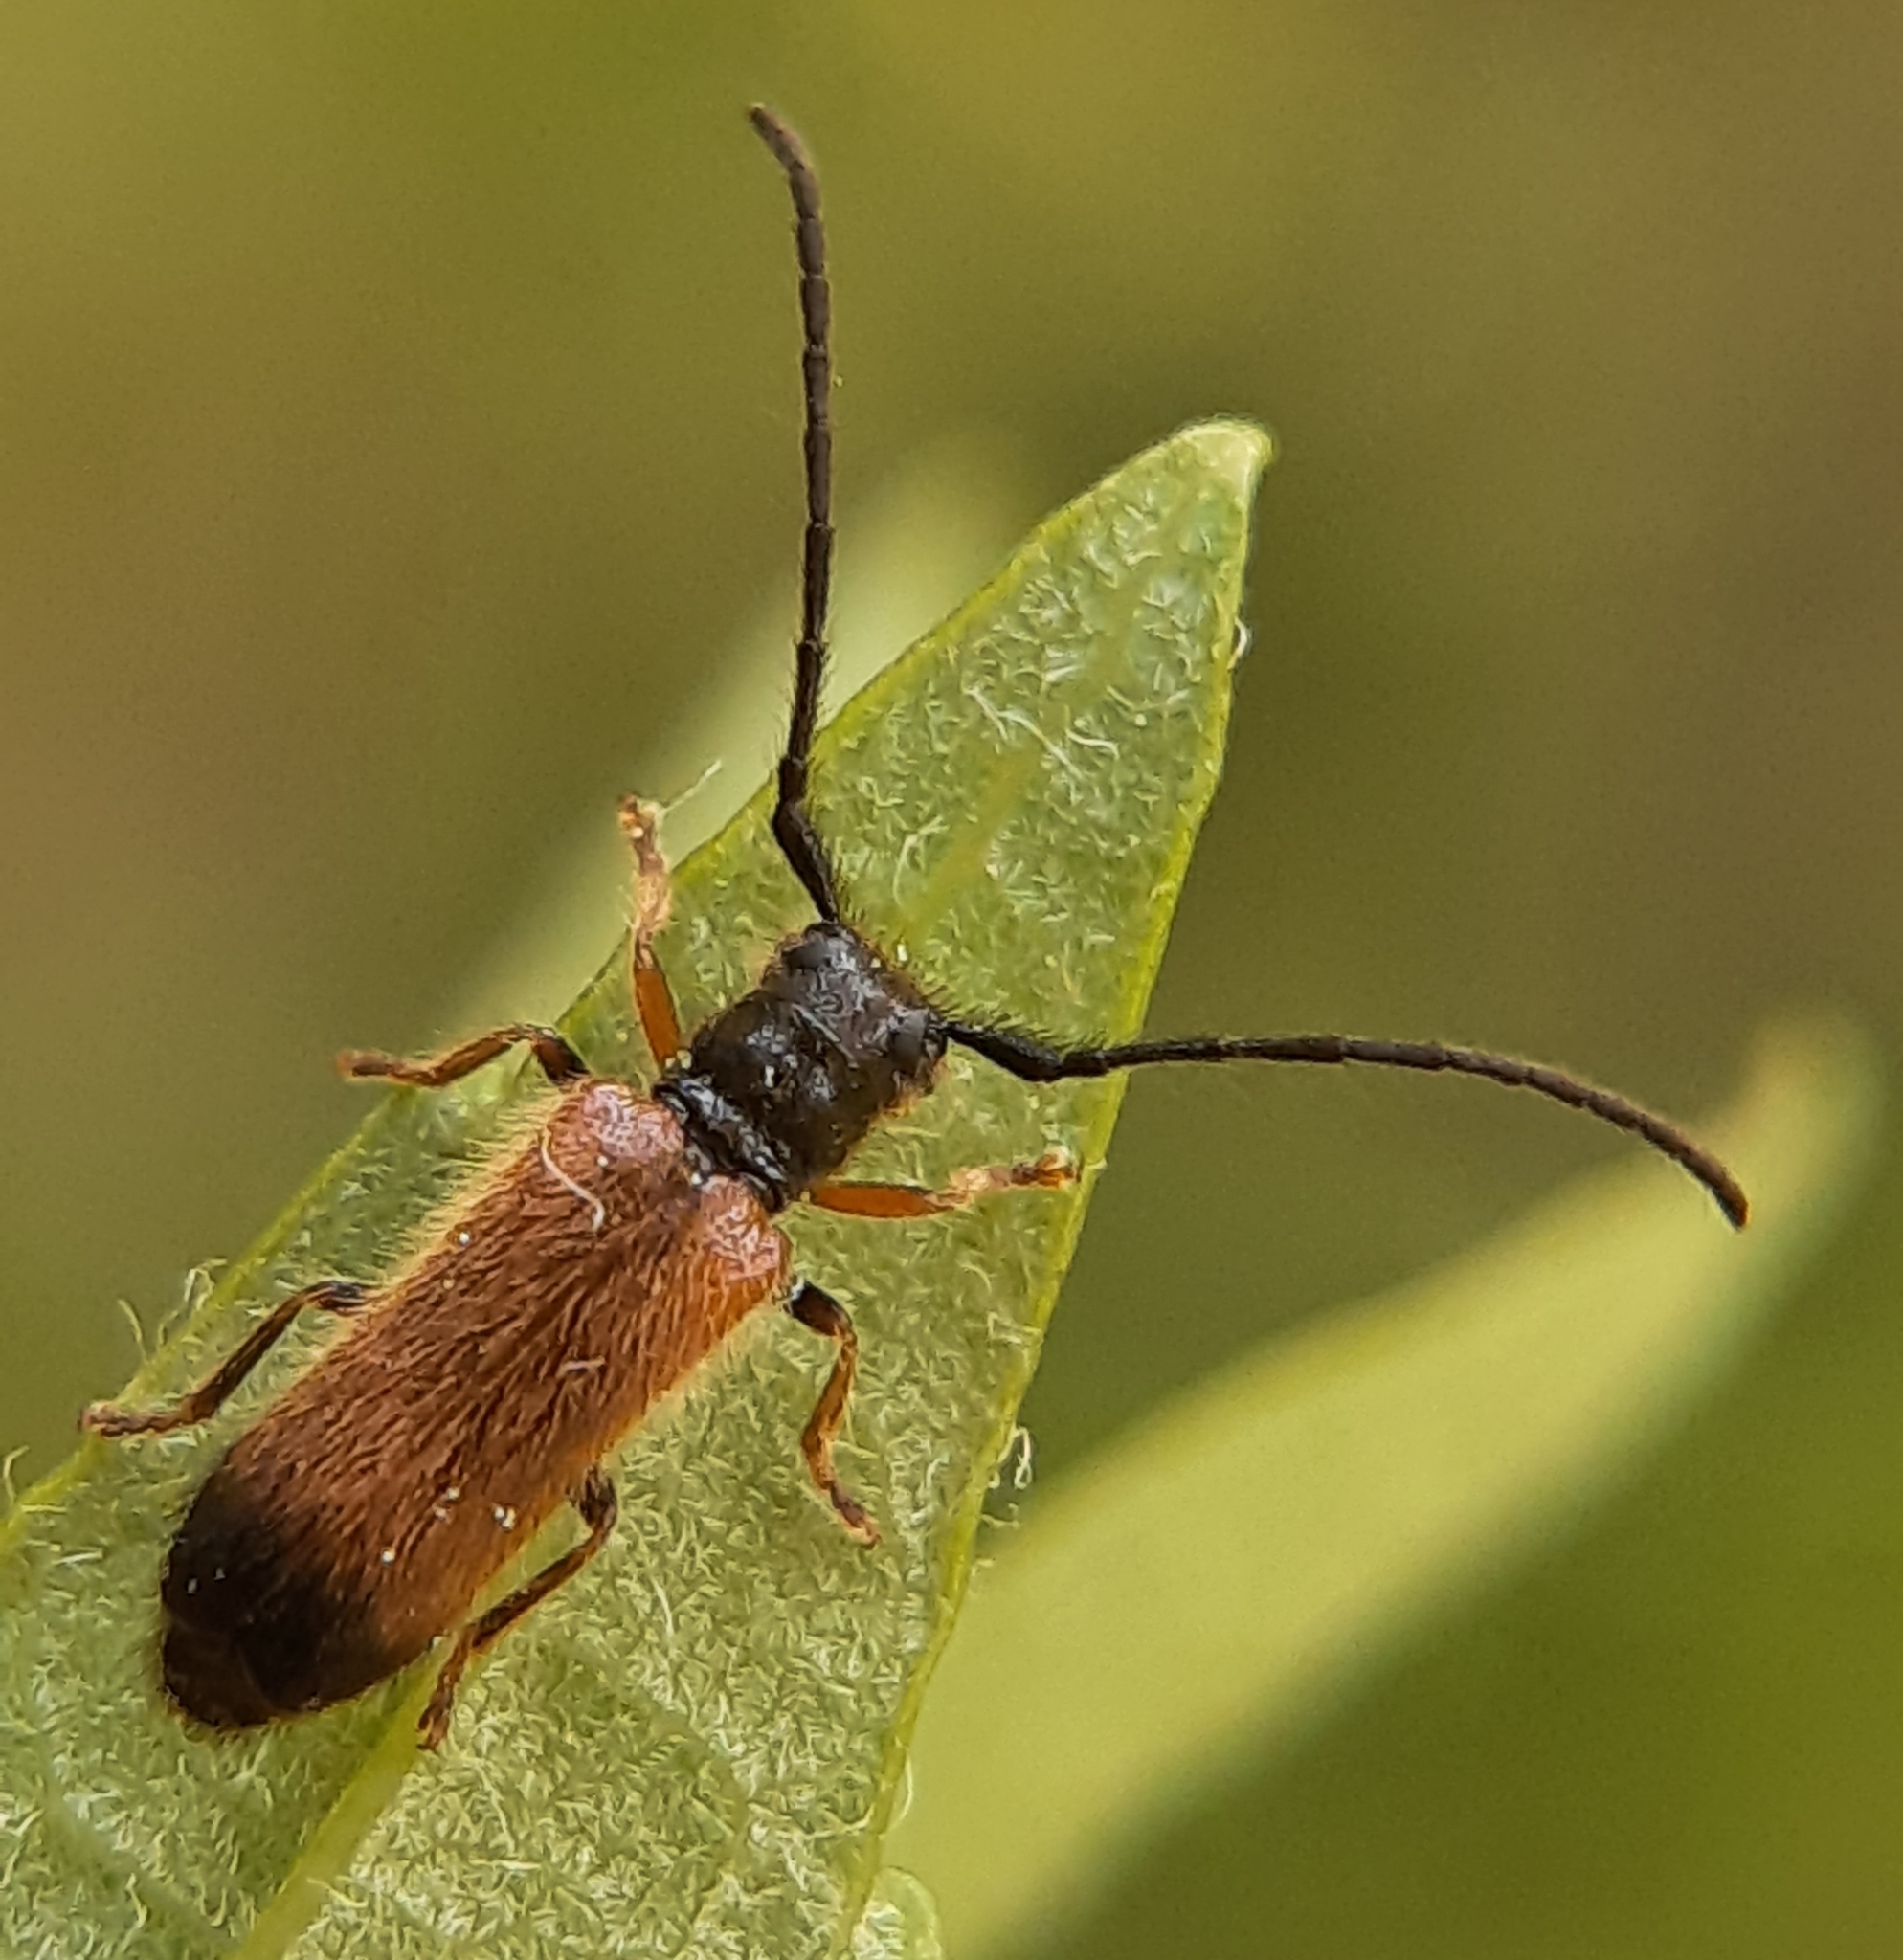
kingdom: Animalia
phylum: Arthropoda
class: Insecta
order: Coleoptera
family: Cerambycidae
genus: Tetrops
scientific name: Tetrops praeustus
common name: Plum beetle
